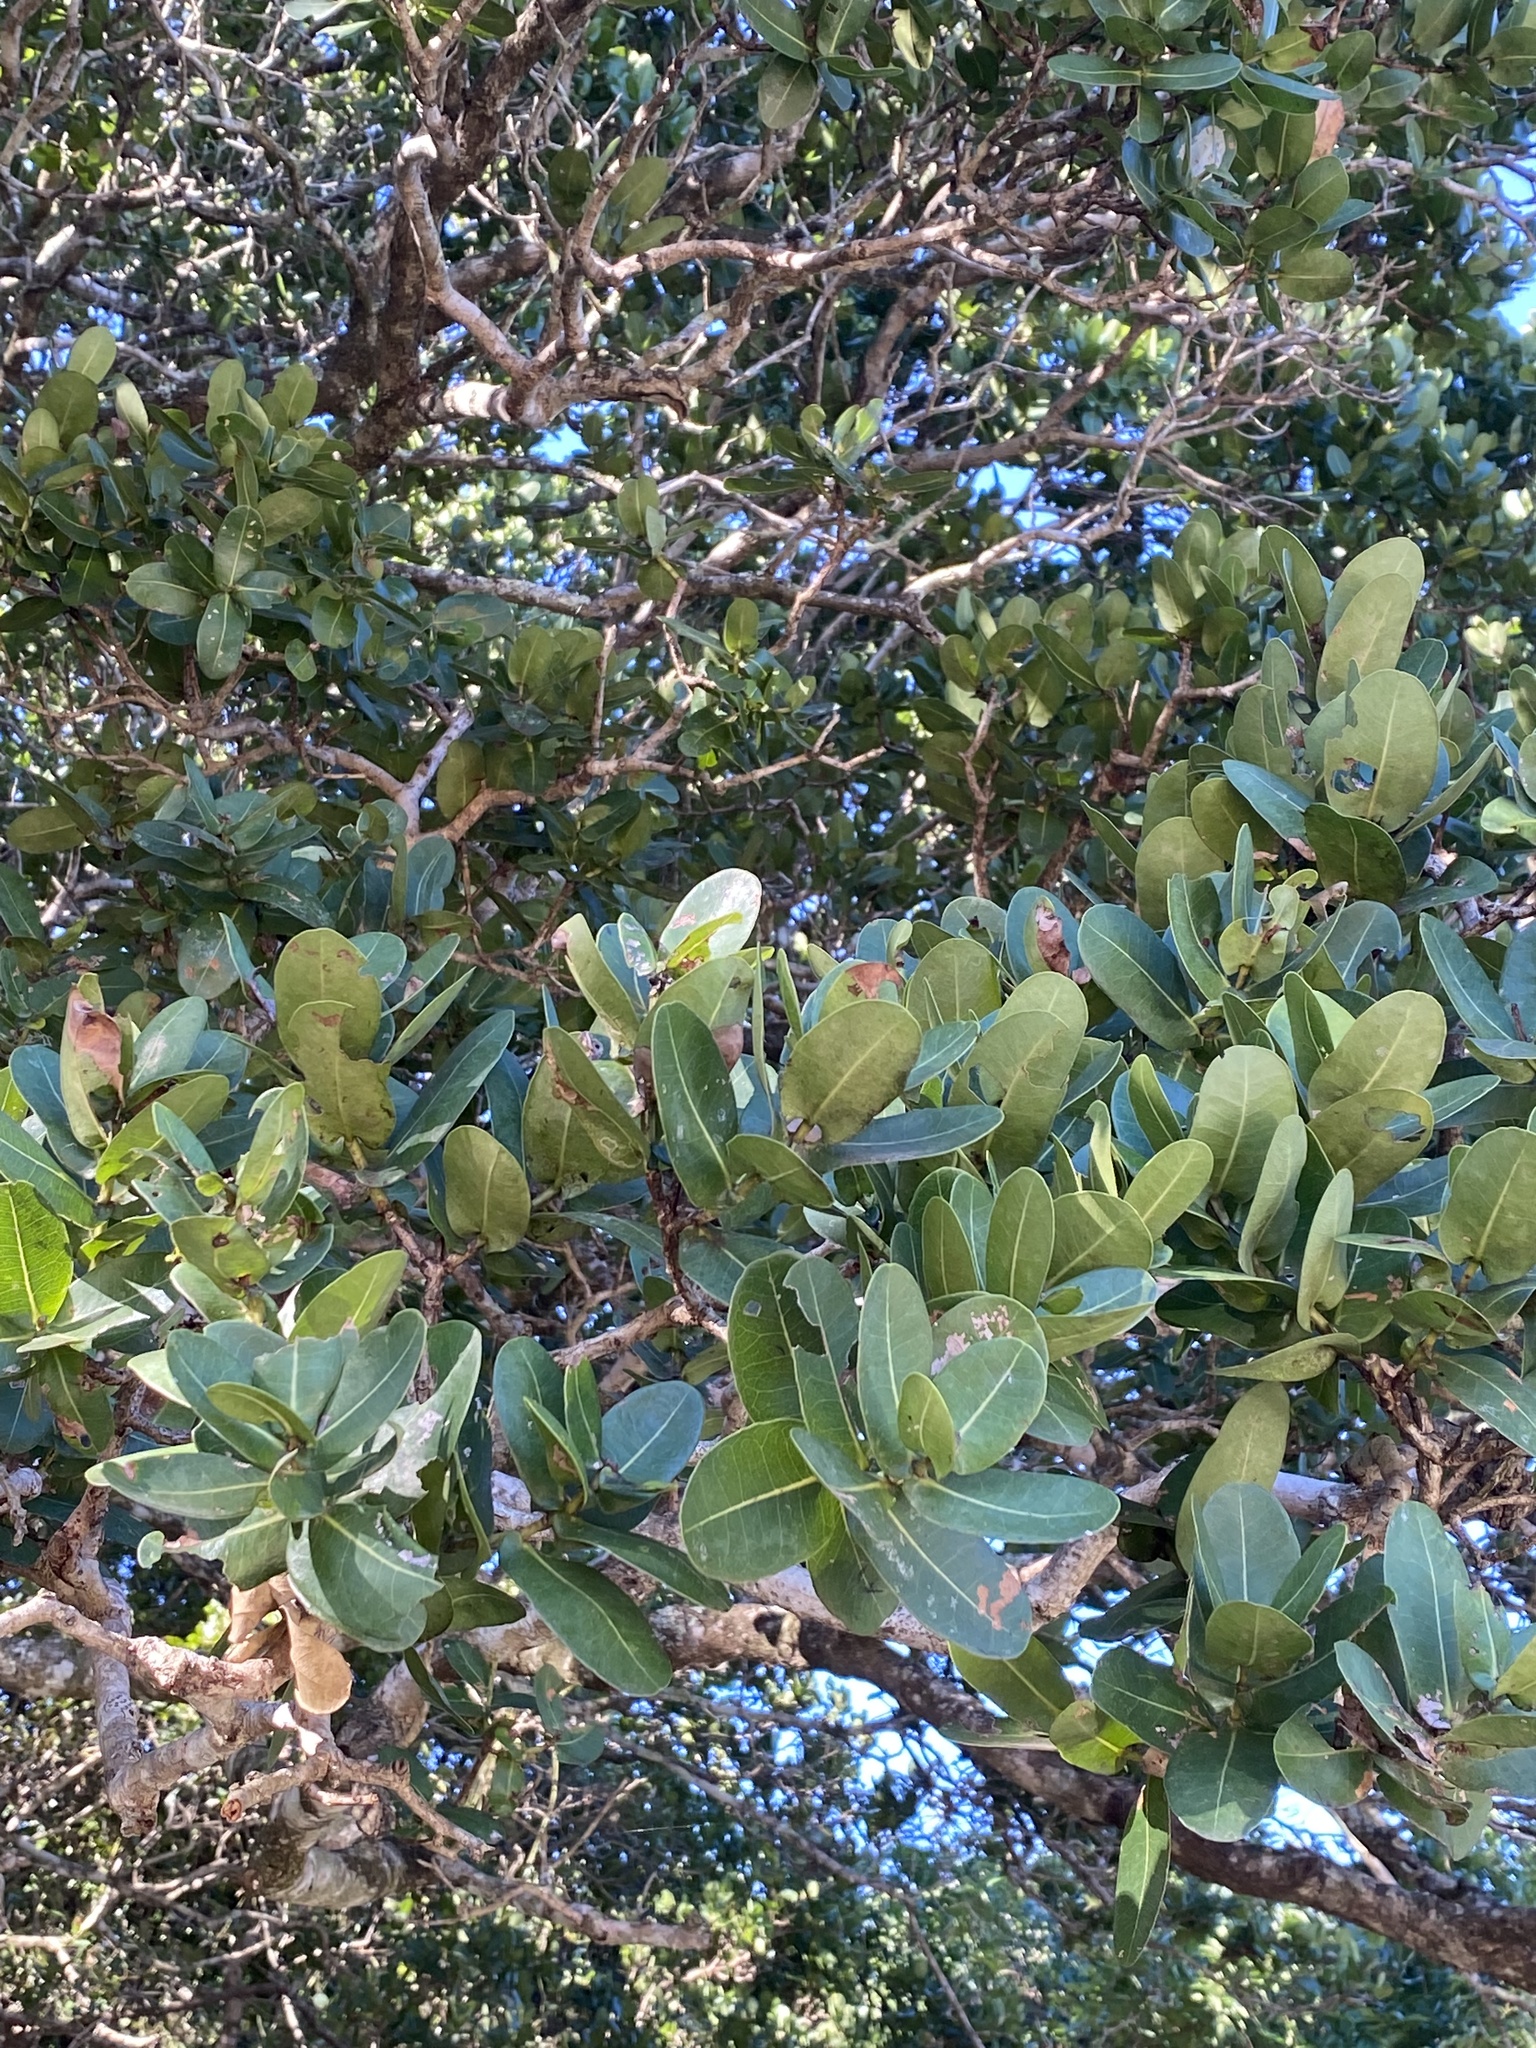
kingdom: Plantae
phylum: Tracheophyta
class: Magnoliopsida
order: Myrtales
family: Myrtaceae
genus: Syzygium
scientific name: Syzygium cordatum
